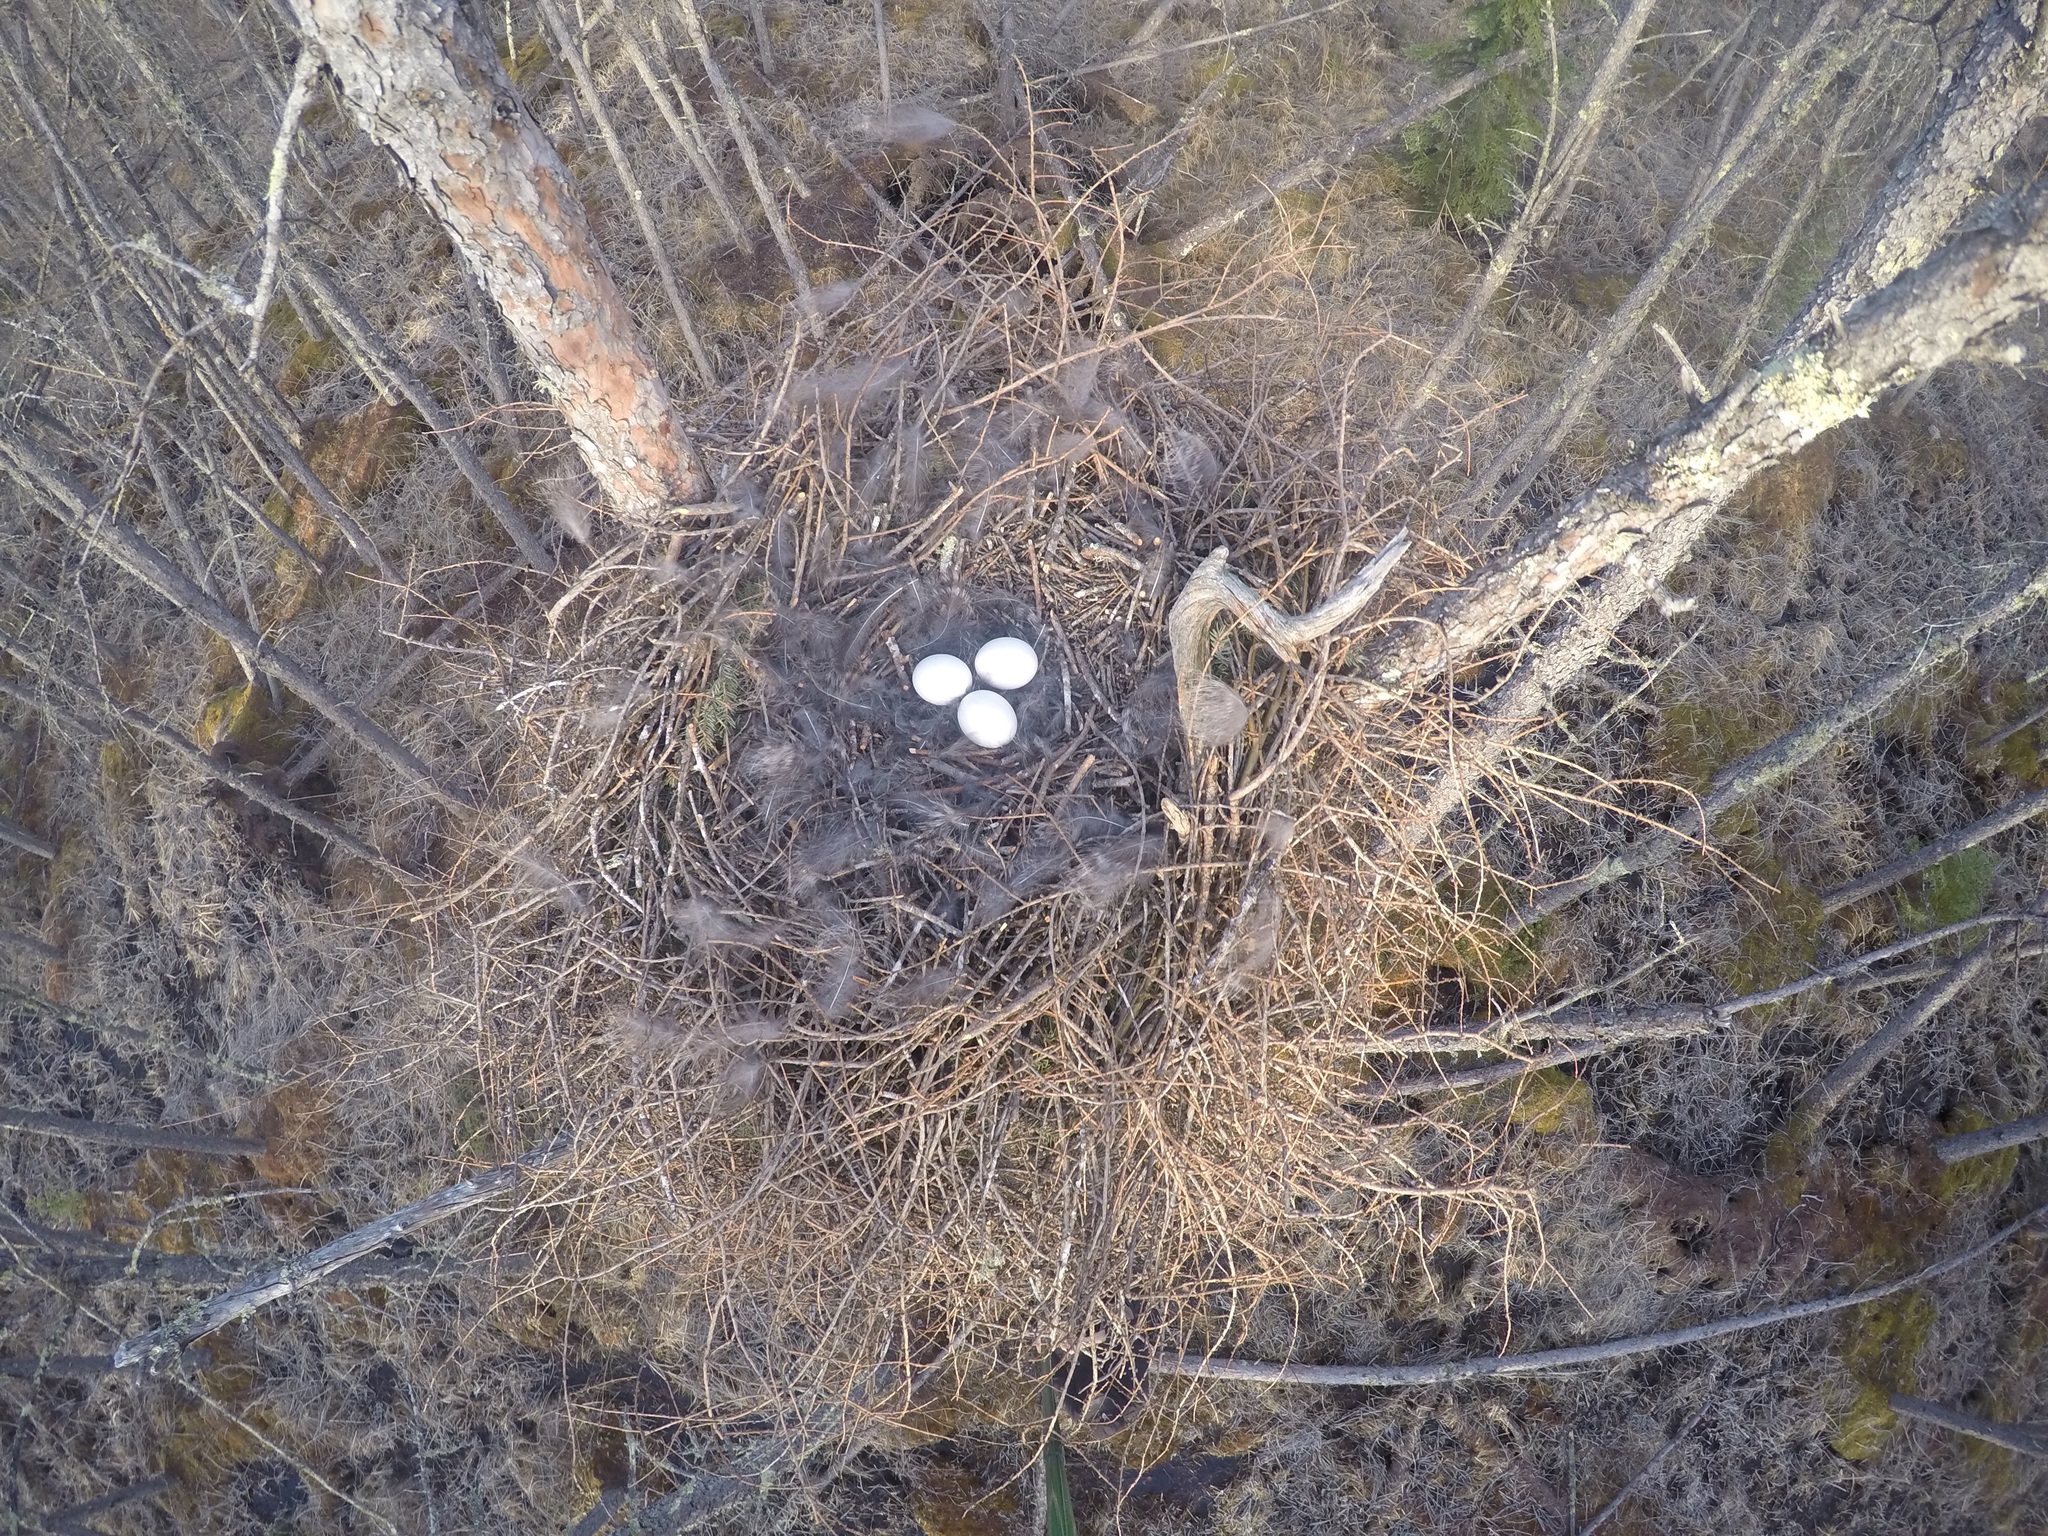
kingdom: Animalia
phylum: Chordata
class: Aves
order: Strigiformes
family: Strigidae
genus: Strix
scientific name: Strix nebulosa
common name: Great grey owl
